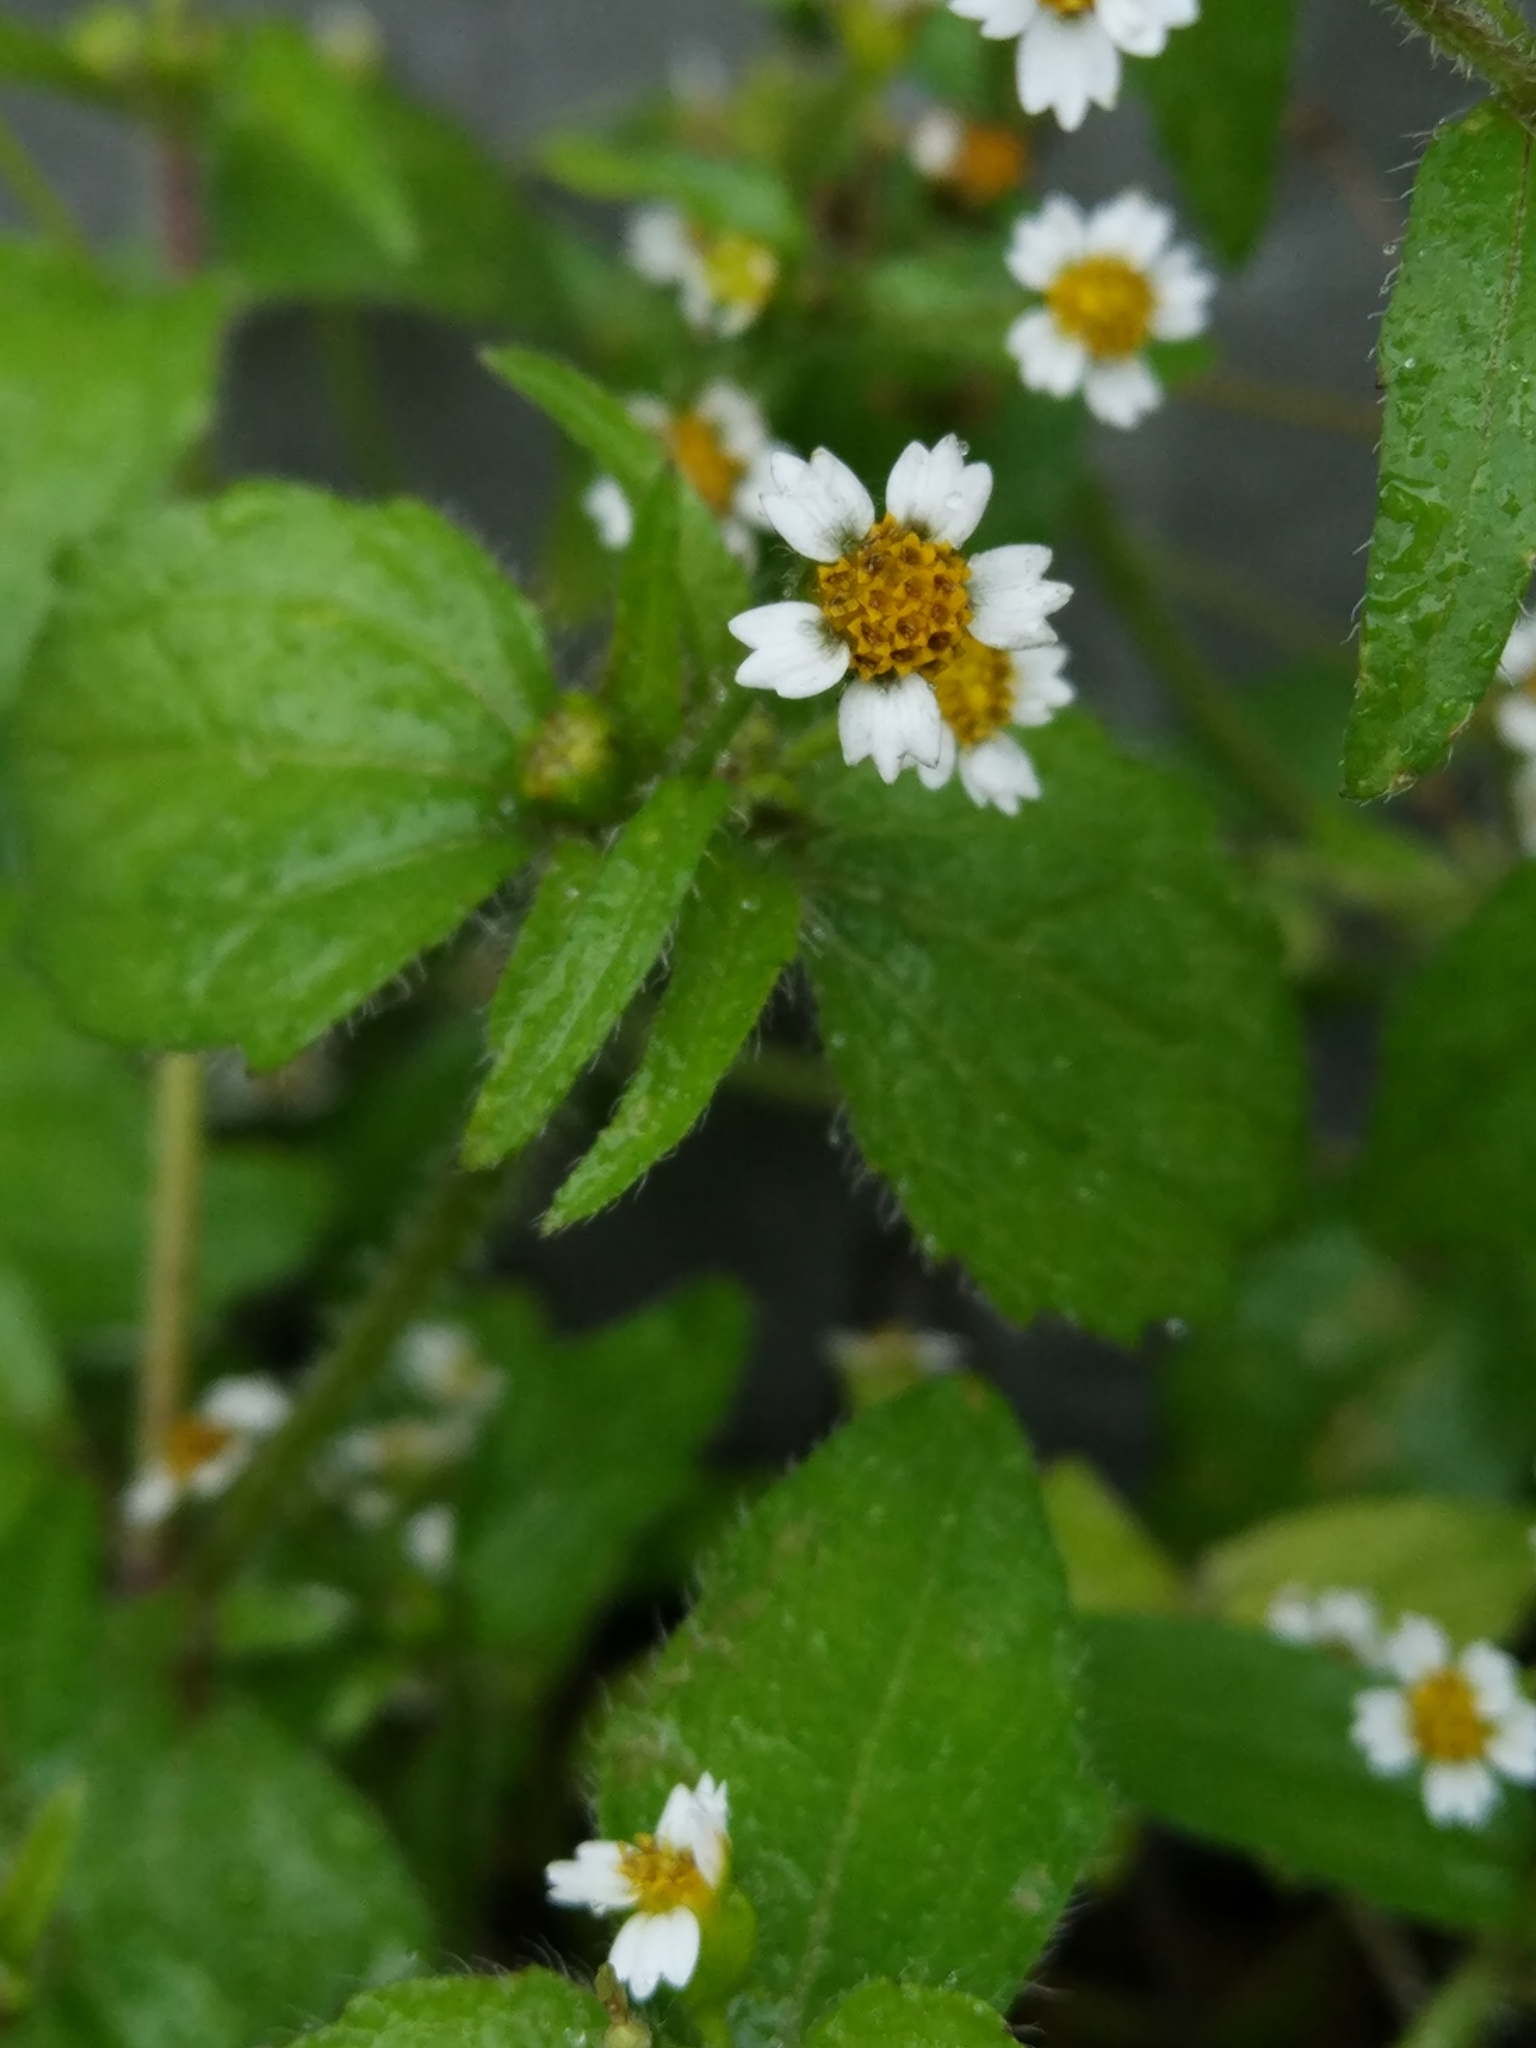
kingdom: Plantae
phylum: Tracheophyta
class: Magnoliopsida
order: Asterales
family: Asteraceae
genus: Galinsoga
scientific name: Galinsoga quadriradiata
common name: Shaggy soldier
